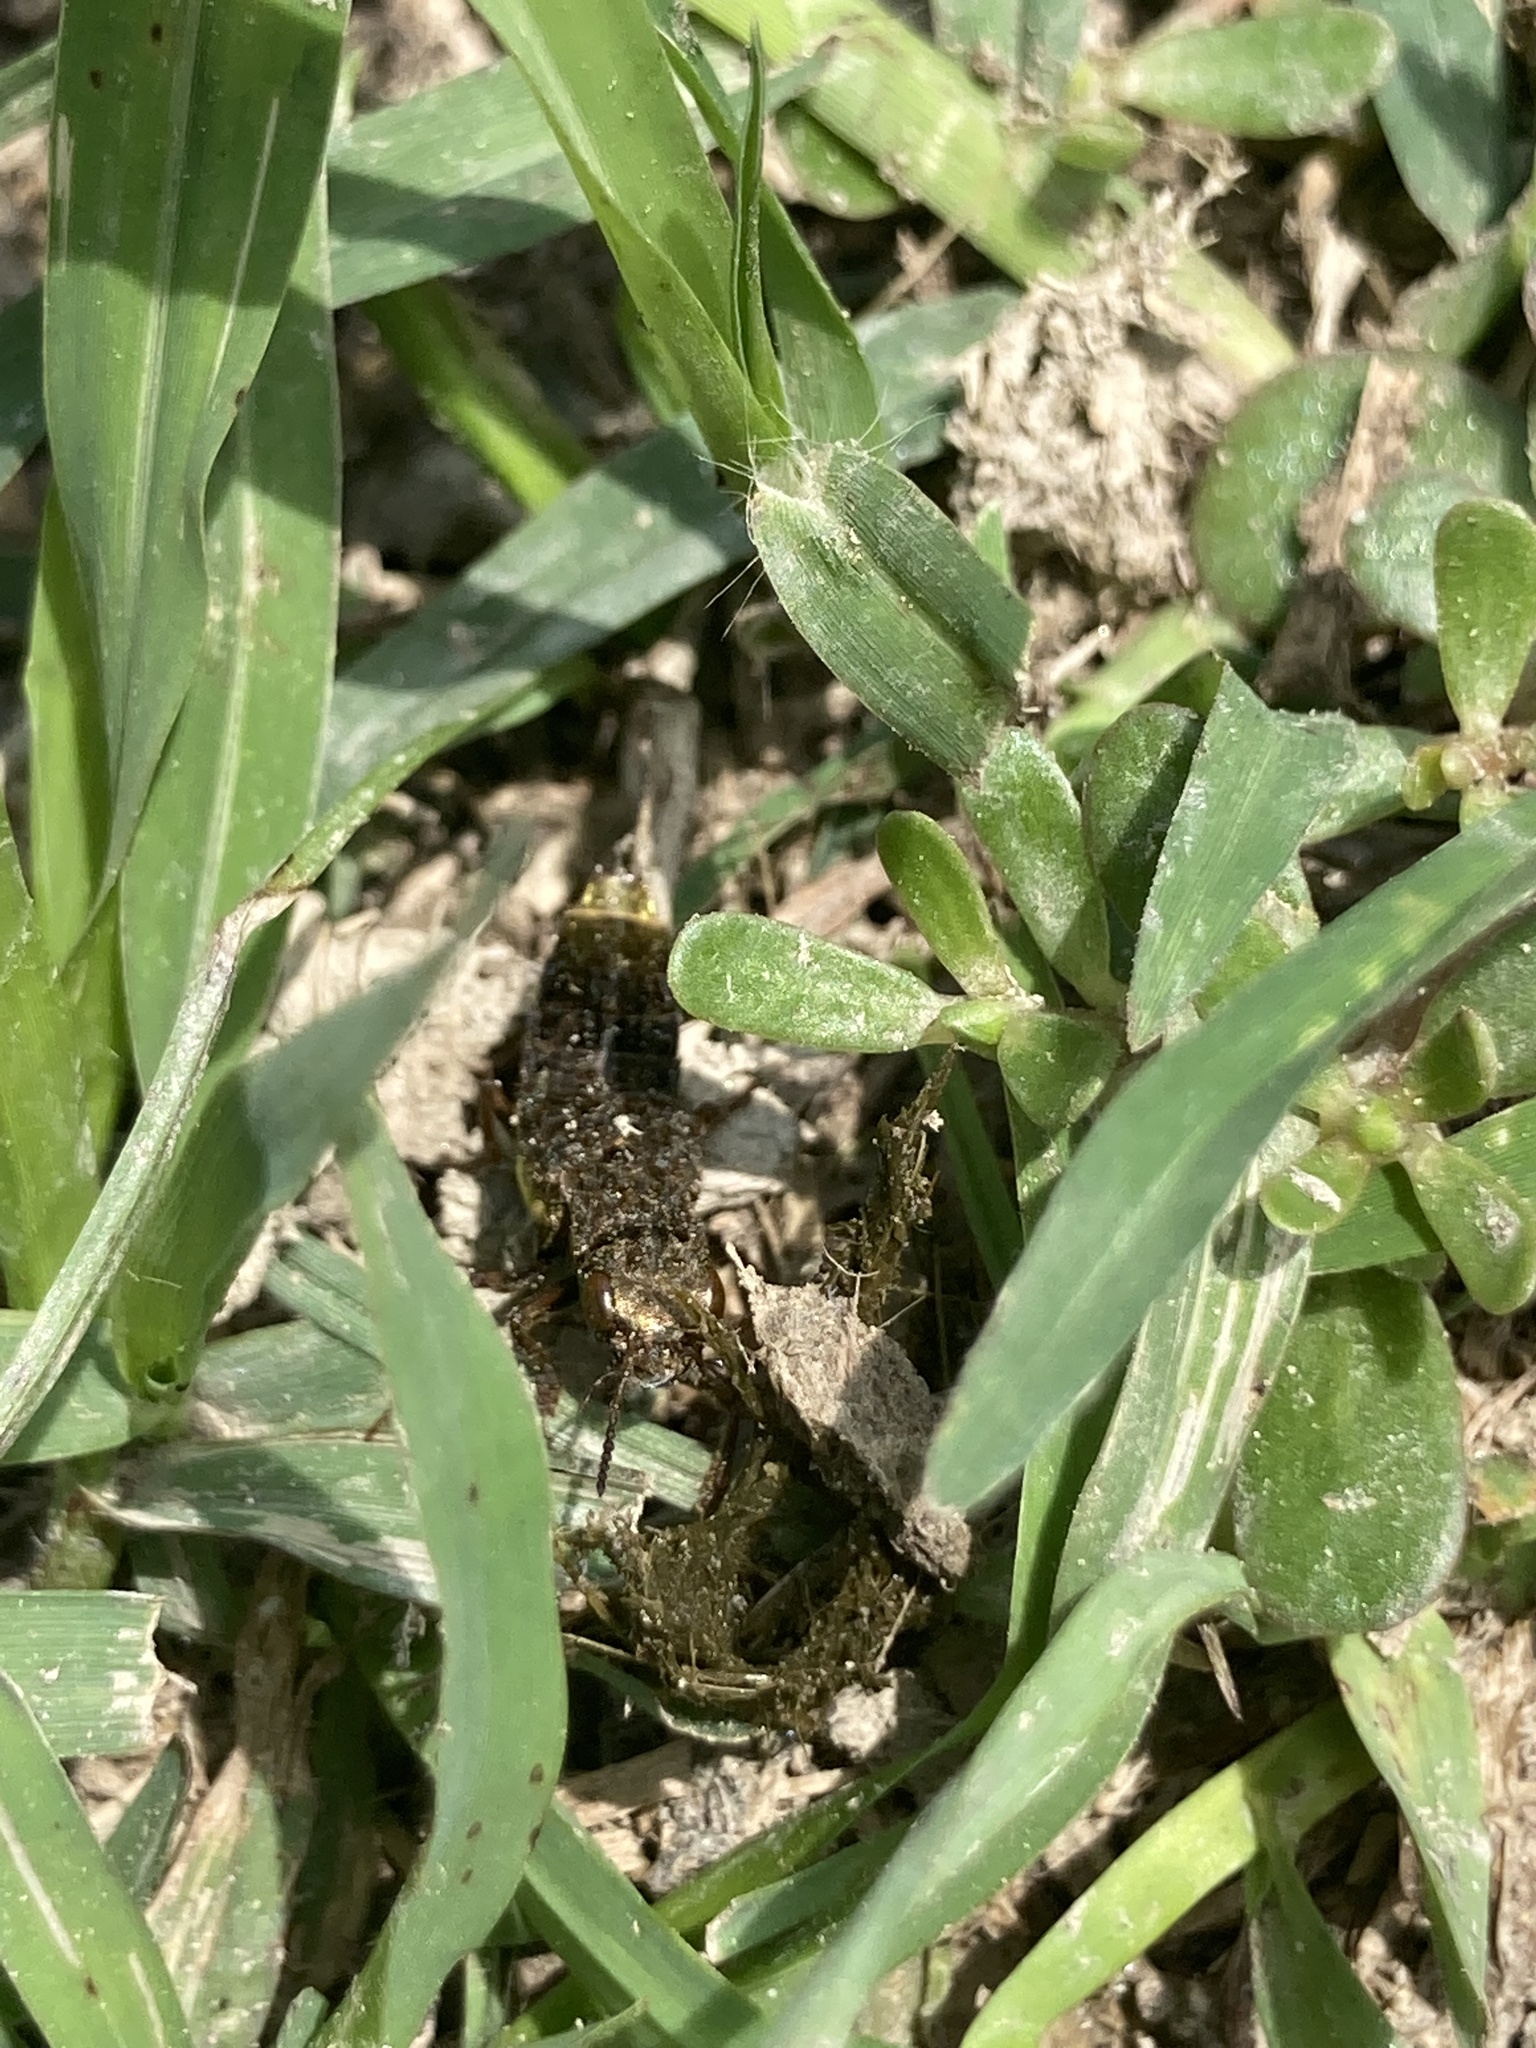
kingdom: Animalia
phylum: Arthropoda
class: Insecta
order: Coleoptera
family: Staphylinidae
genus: Ontholestes
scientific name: Ontholestes cingulatus
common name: Gold-and-brown rove beetle
